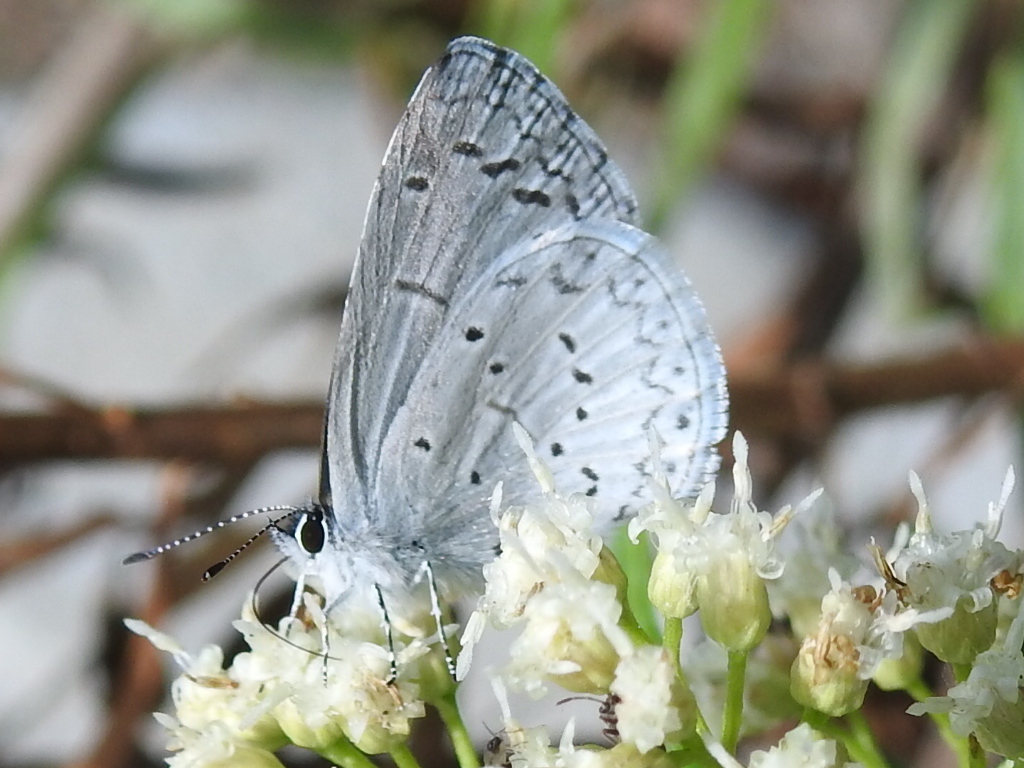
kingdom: Animalia
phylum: Arthropoda
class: Insecta
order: Lepidoptera
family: Lycaenidae
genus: Celastrina
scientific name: Celastrina ladon
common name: Spring azure
